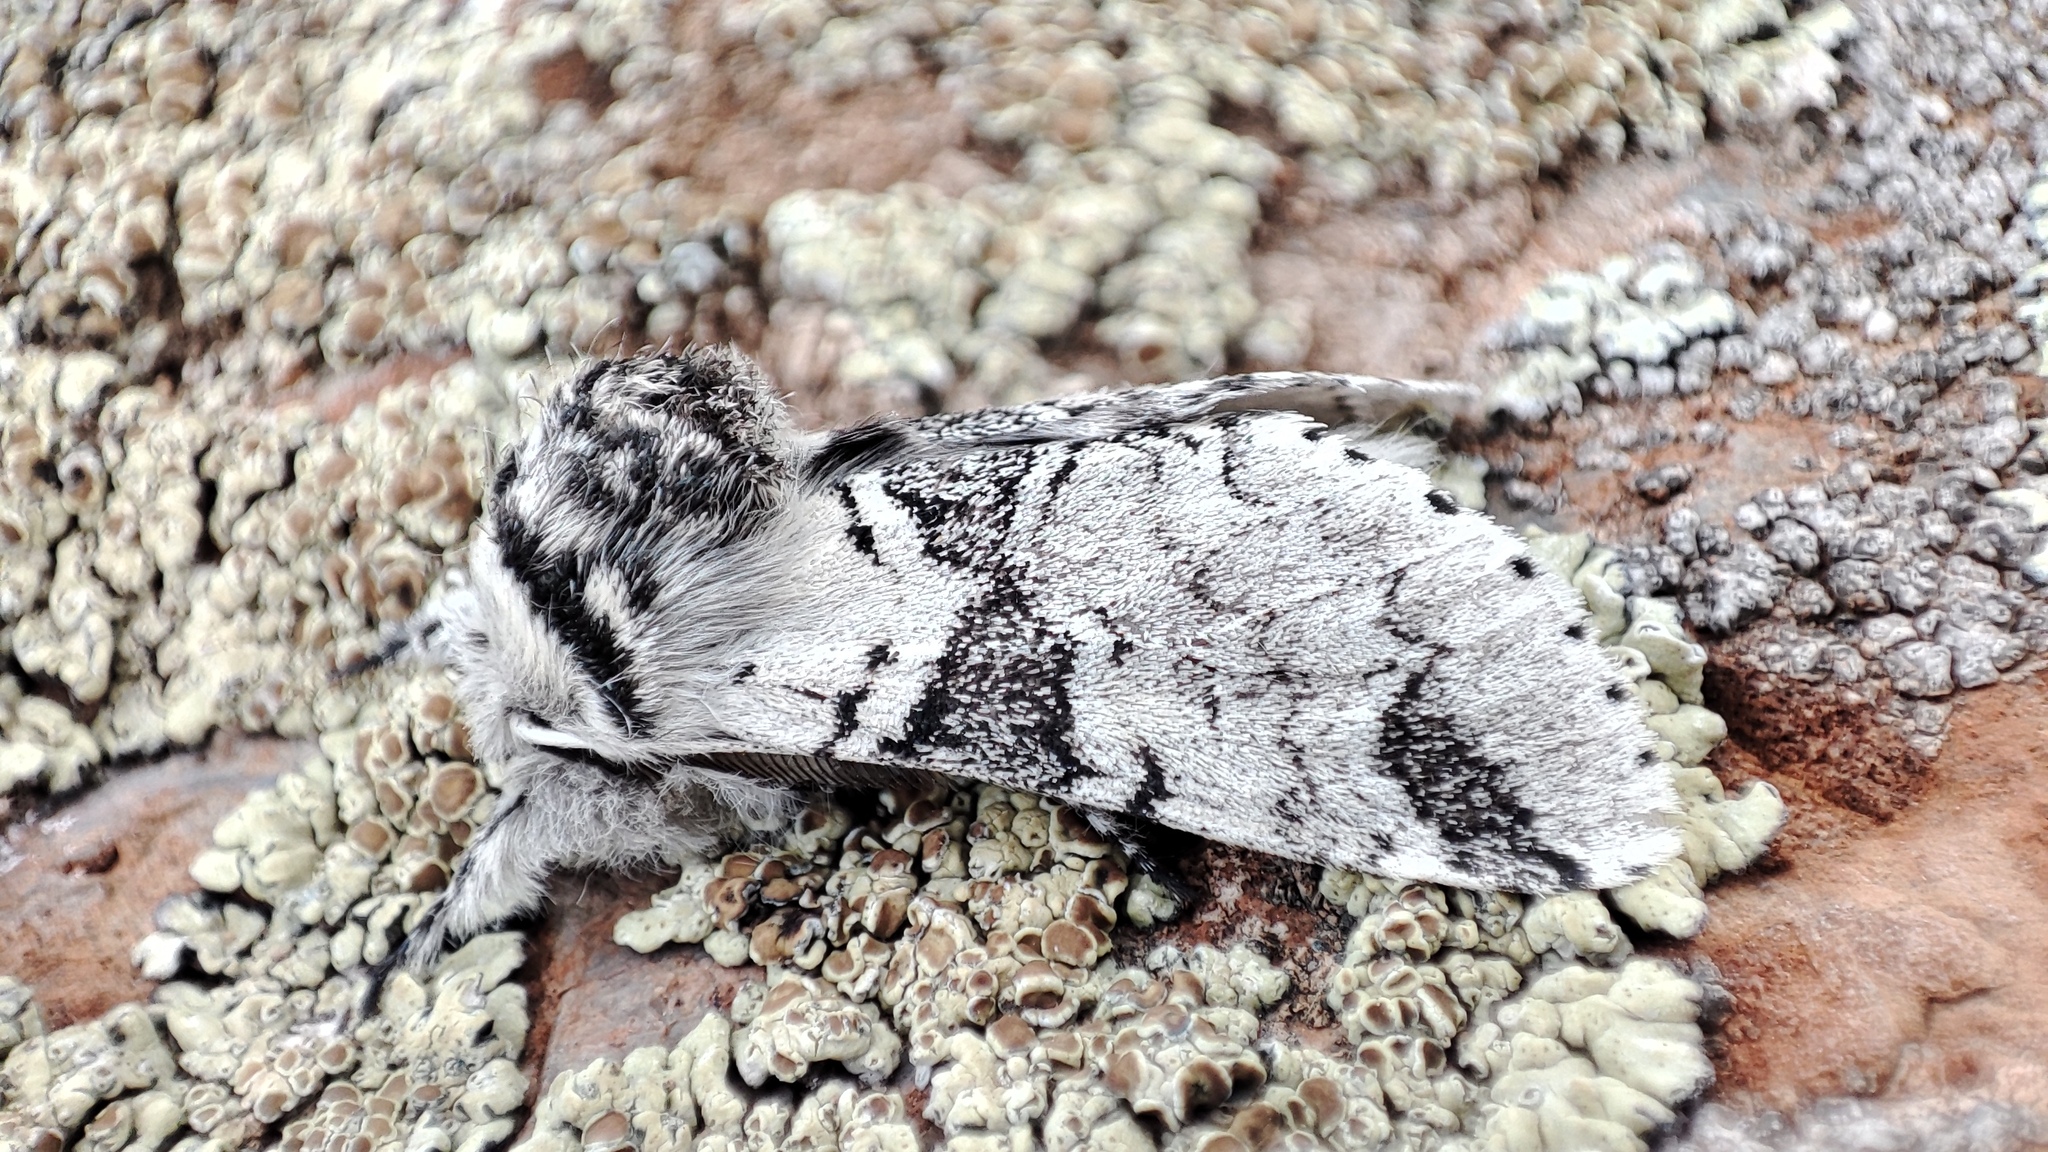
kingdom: Animalia
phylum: Arthropoda
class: Insecta
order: Lepidoptera
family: Notodontidae
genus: Furcula
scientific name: Furcula aeruginosa
